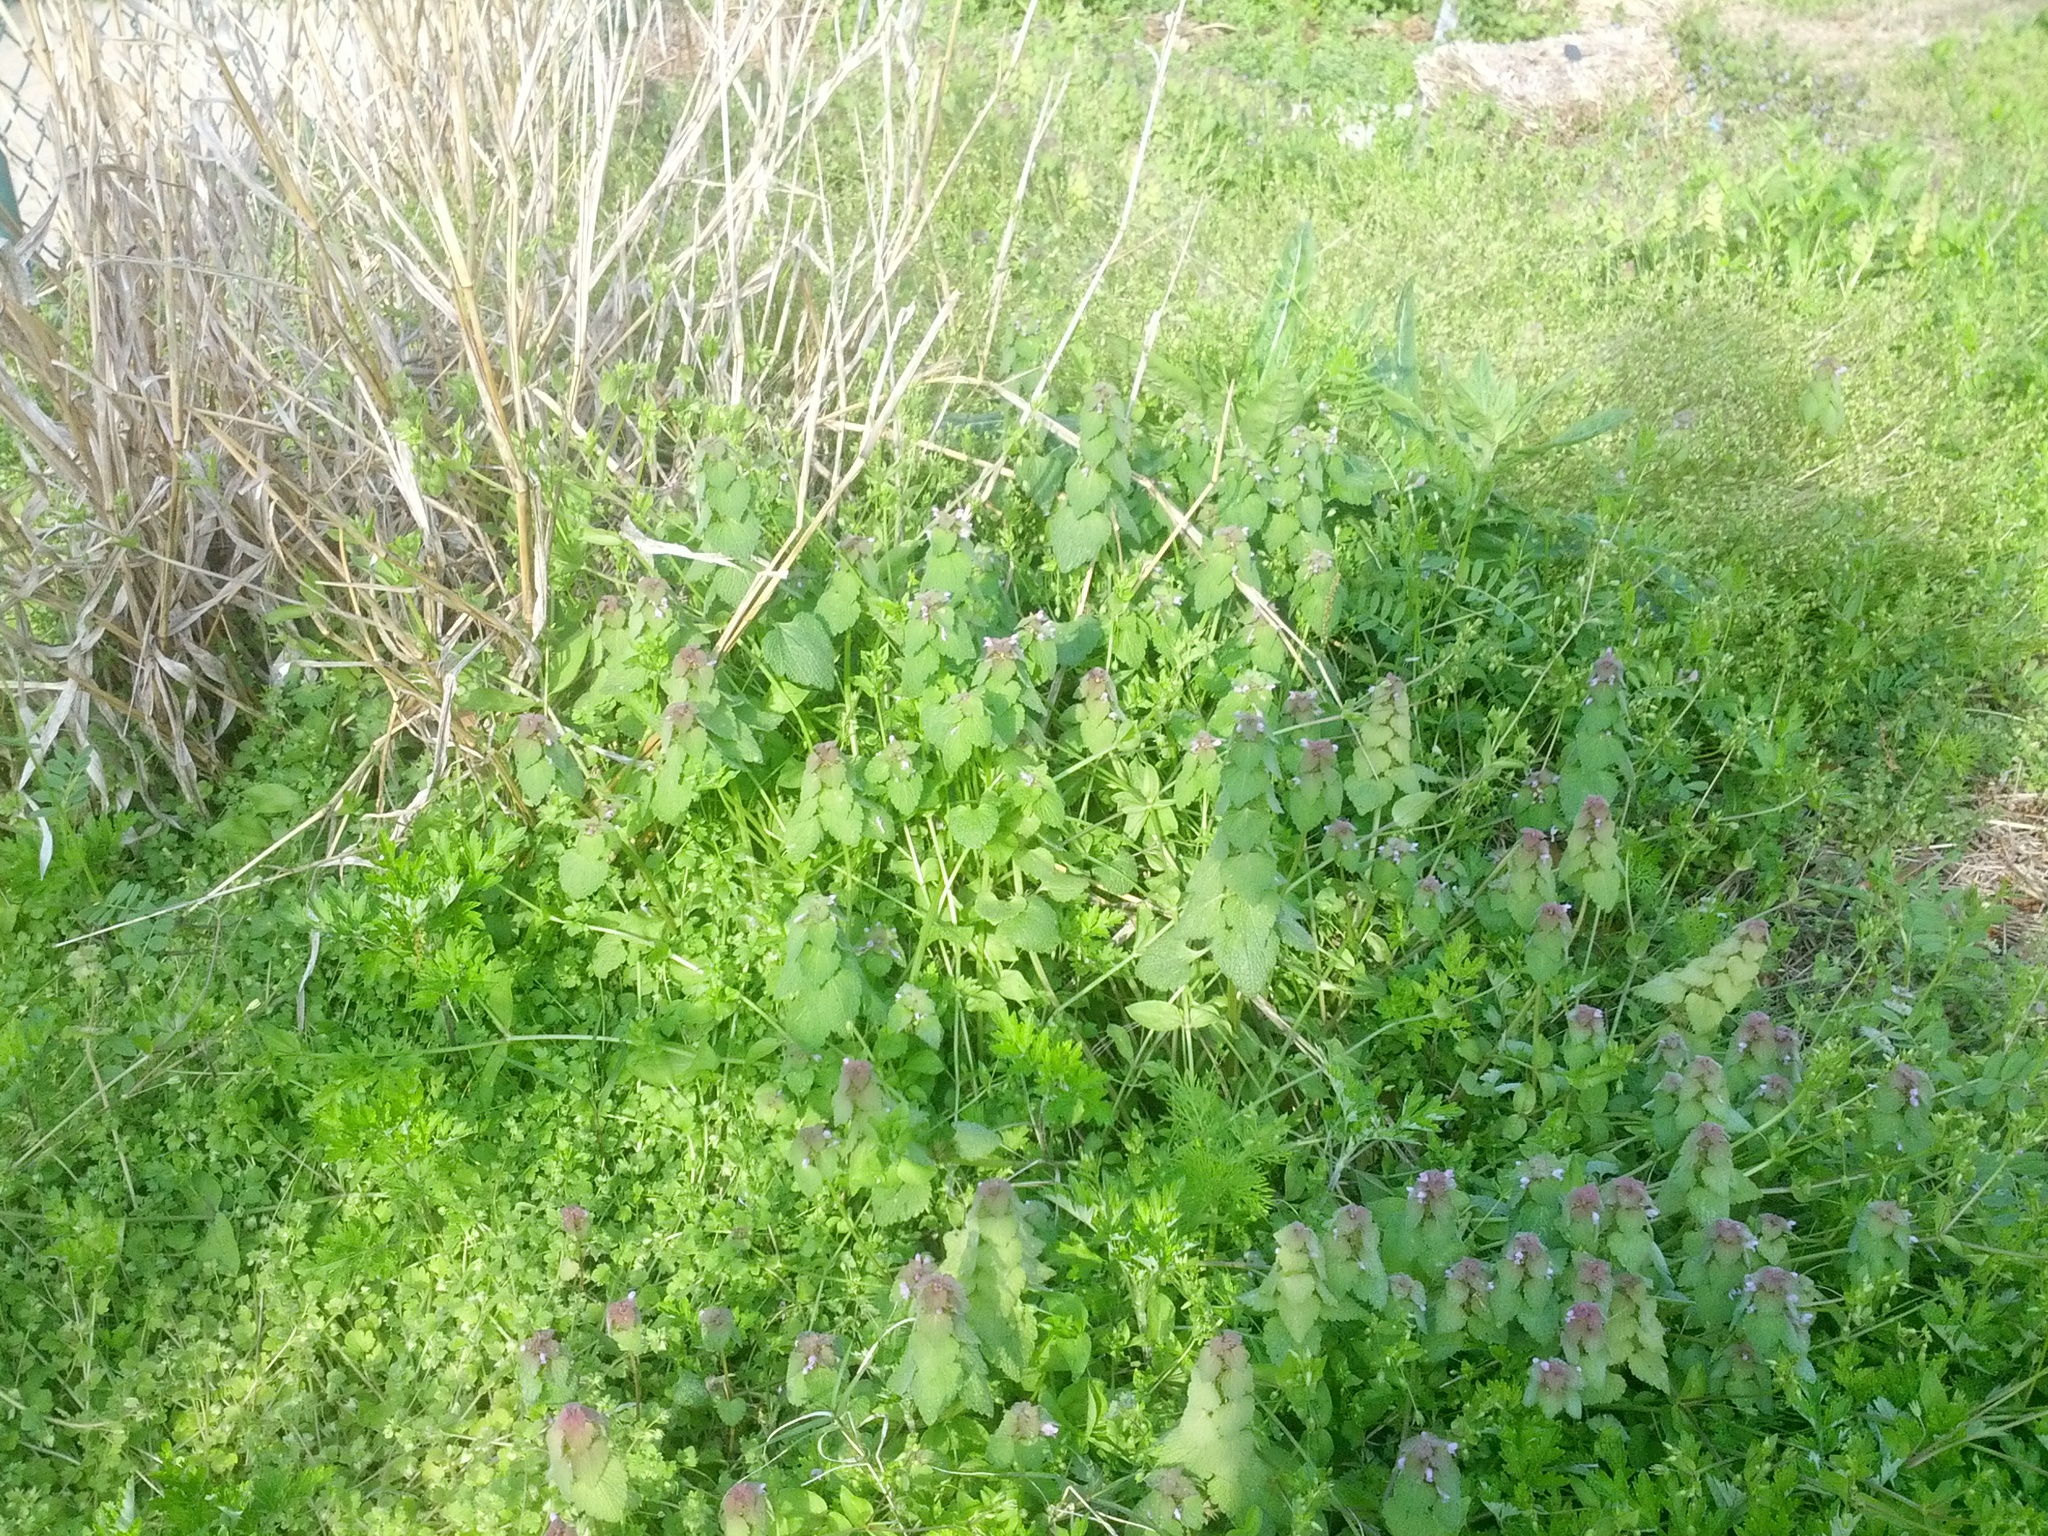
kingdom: Plantae
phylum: Tracheophyta
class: Magnoliopsida
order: Lamiales
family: Lamiaceae
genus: Lamium
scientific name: Lamium purpureum
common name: Red dead-nettle
